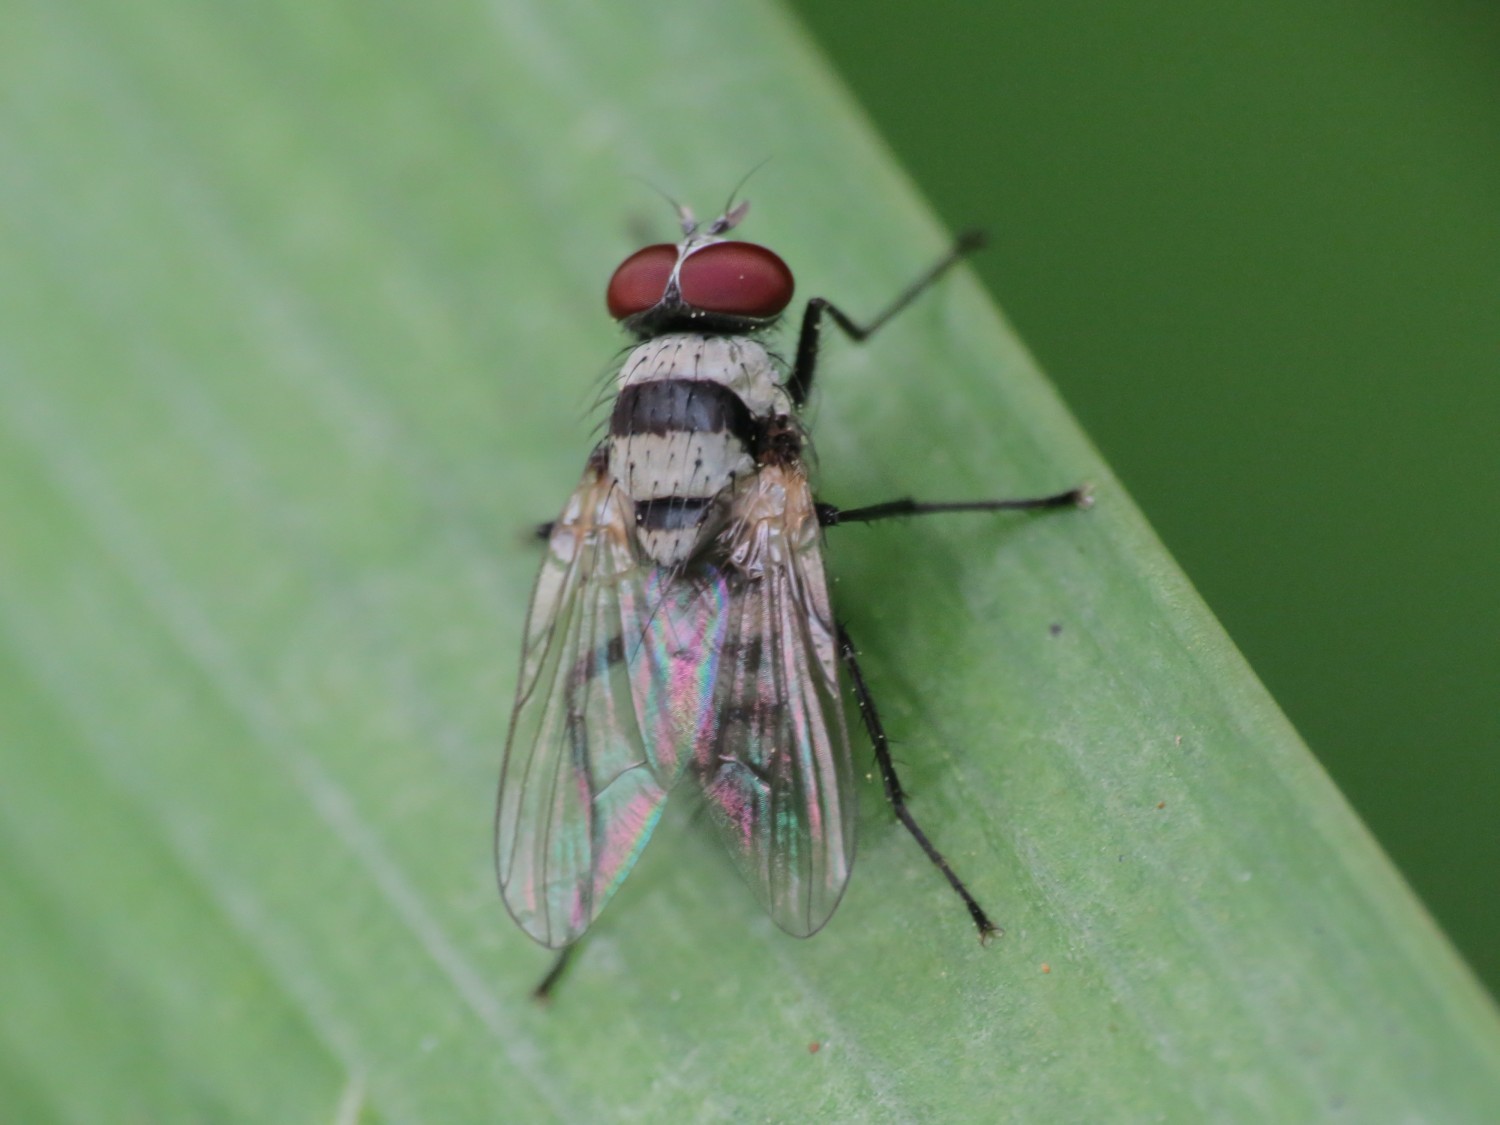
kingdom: Animalia
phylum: Arthropoda
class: Insecta
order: Diptera
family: Anthomyiidae
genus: Anthomyia
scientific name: Anthomyia illocata
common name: Fly
